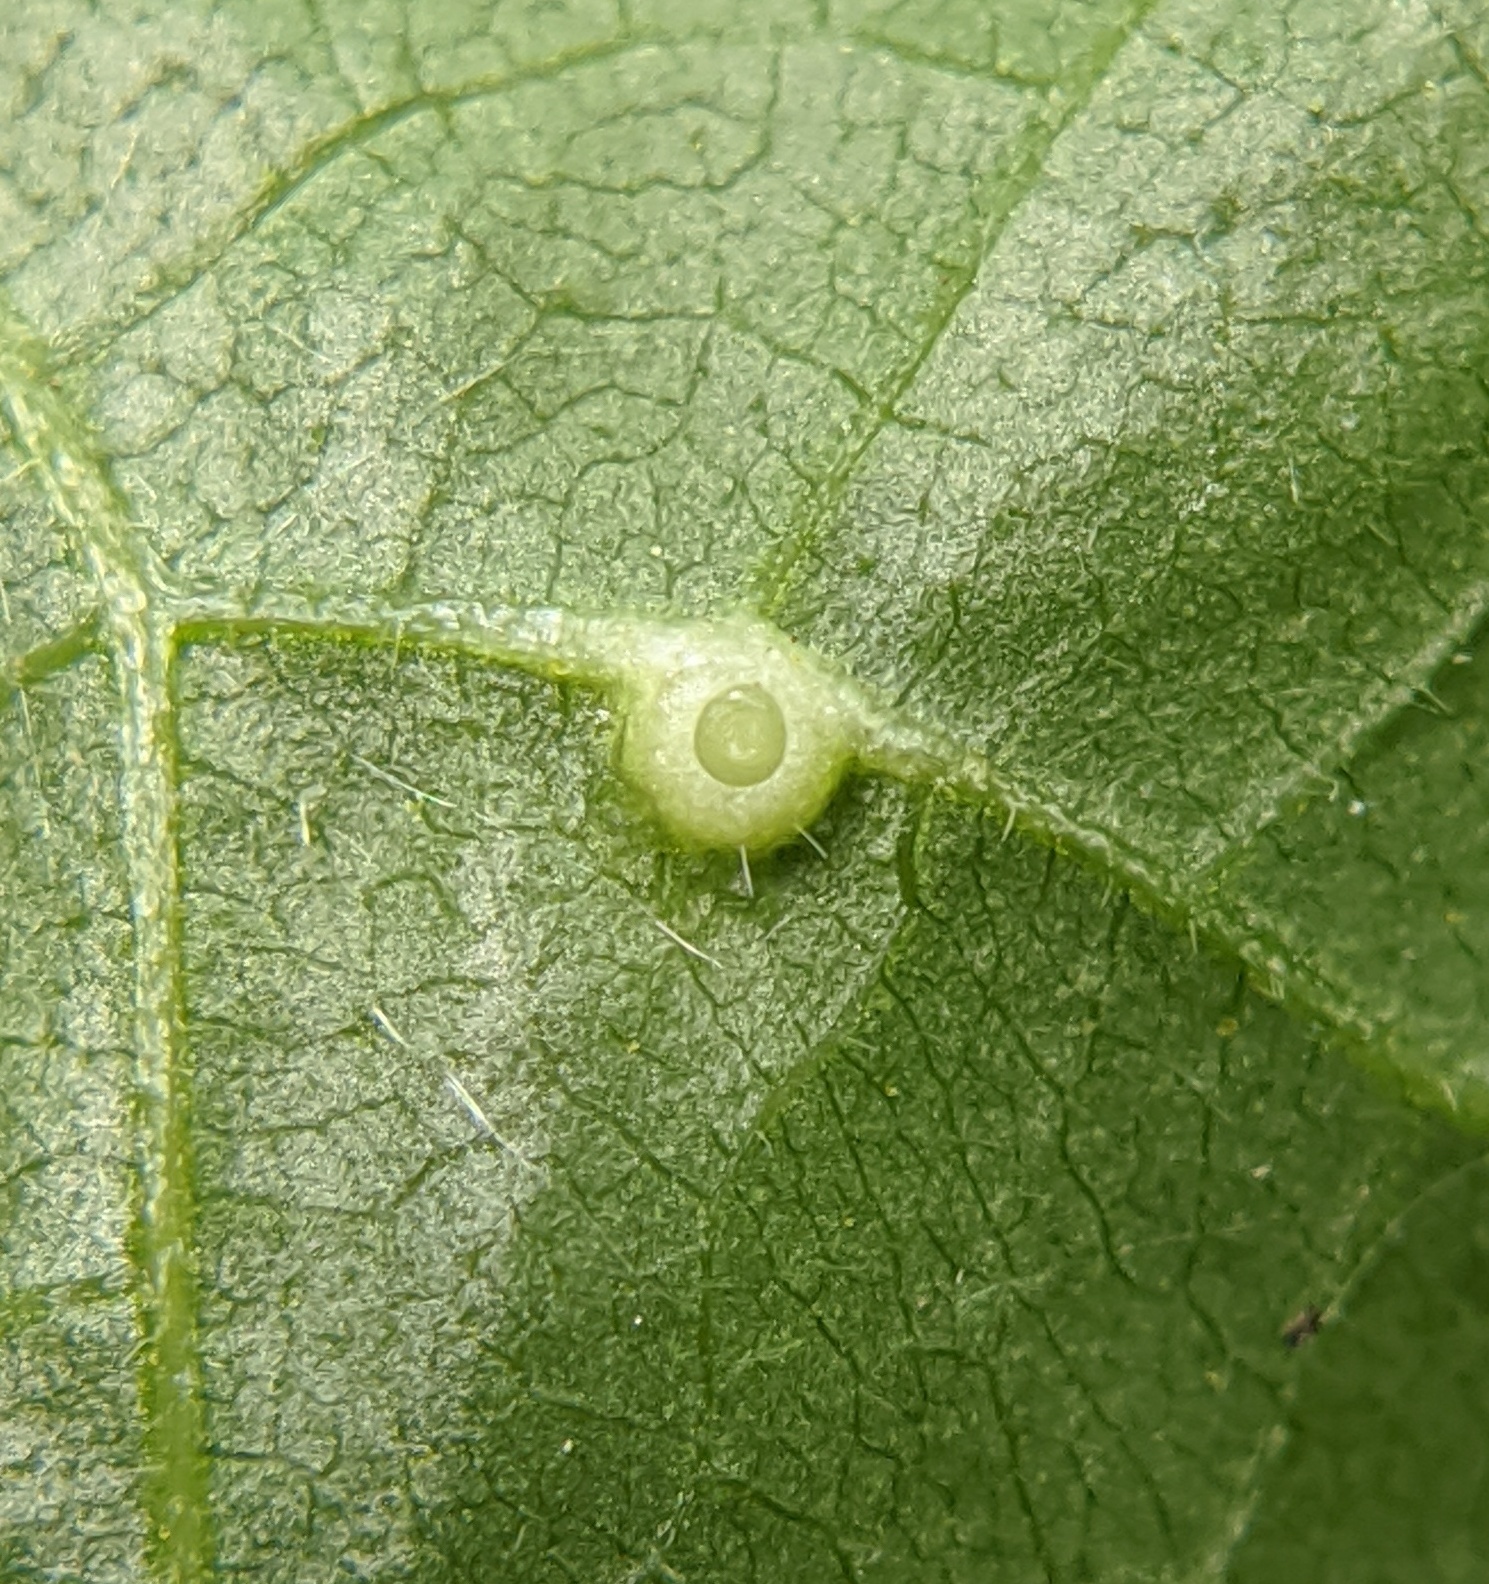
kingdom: Animalia
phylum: Arthropoda
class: Insecta
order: Diptera
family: Cecidomyiidae
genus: Caryomyia
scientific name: Caryomyia tubicola
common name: Hickory bullet gall midge
